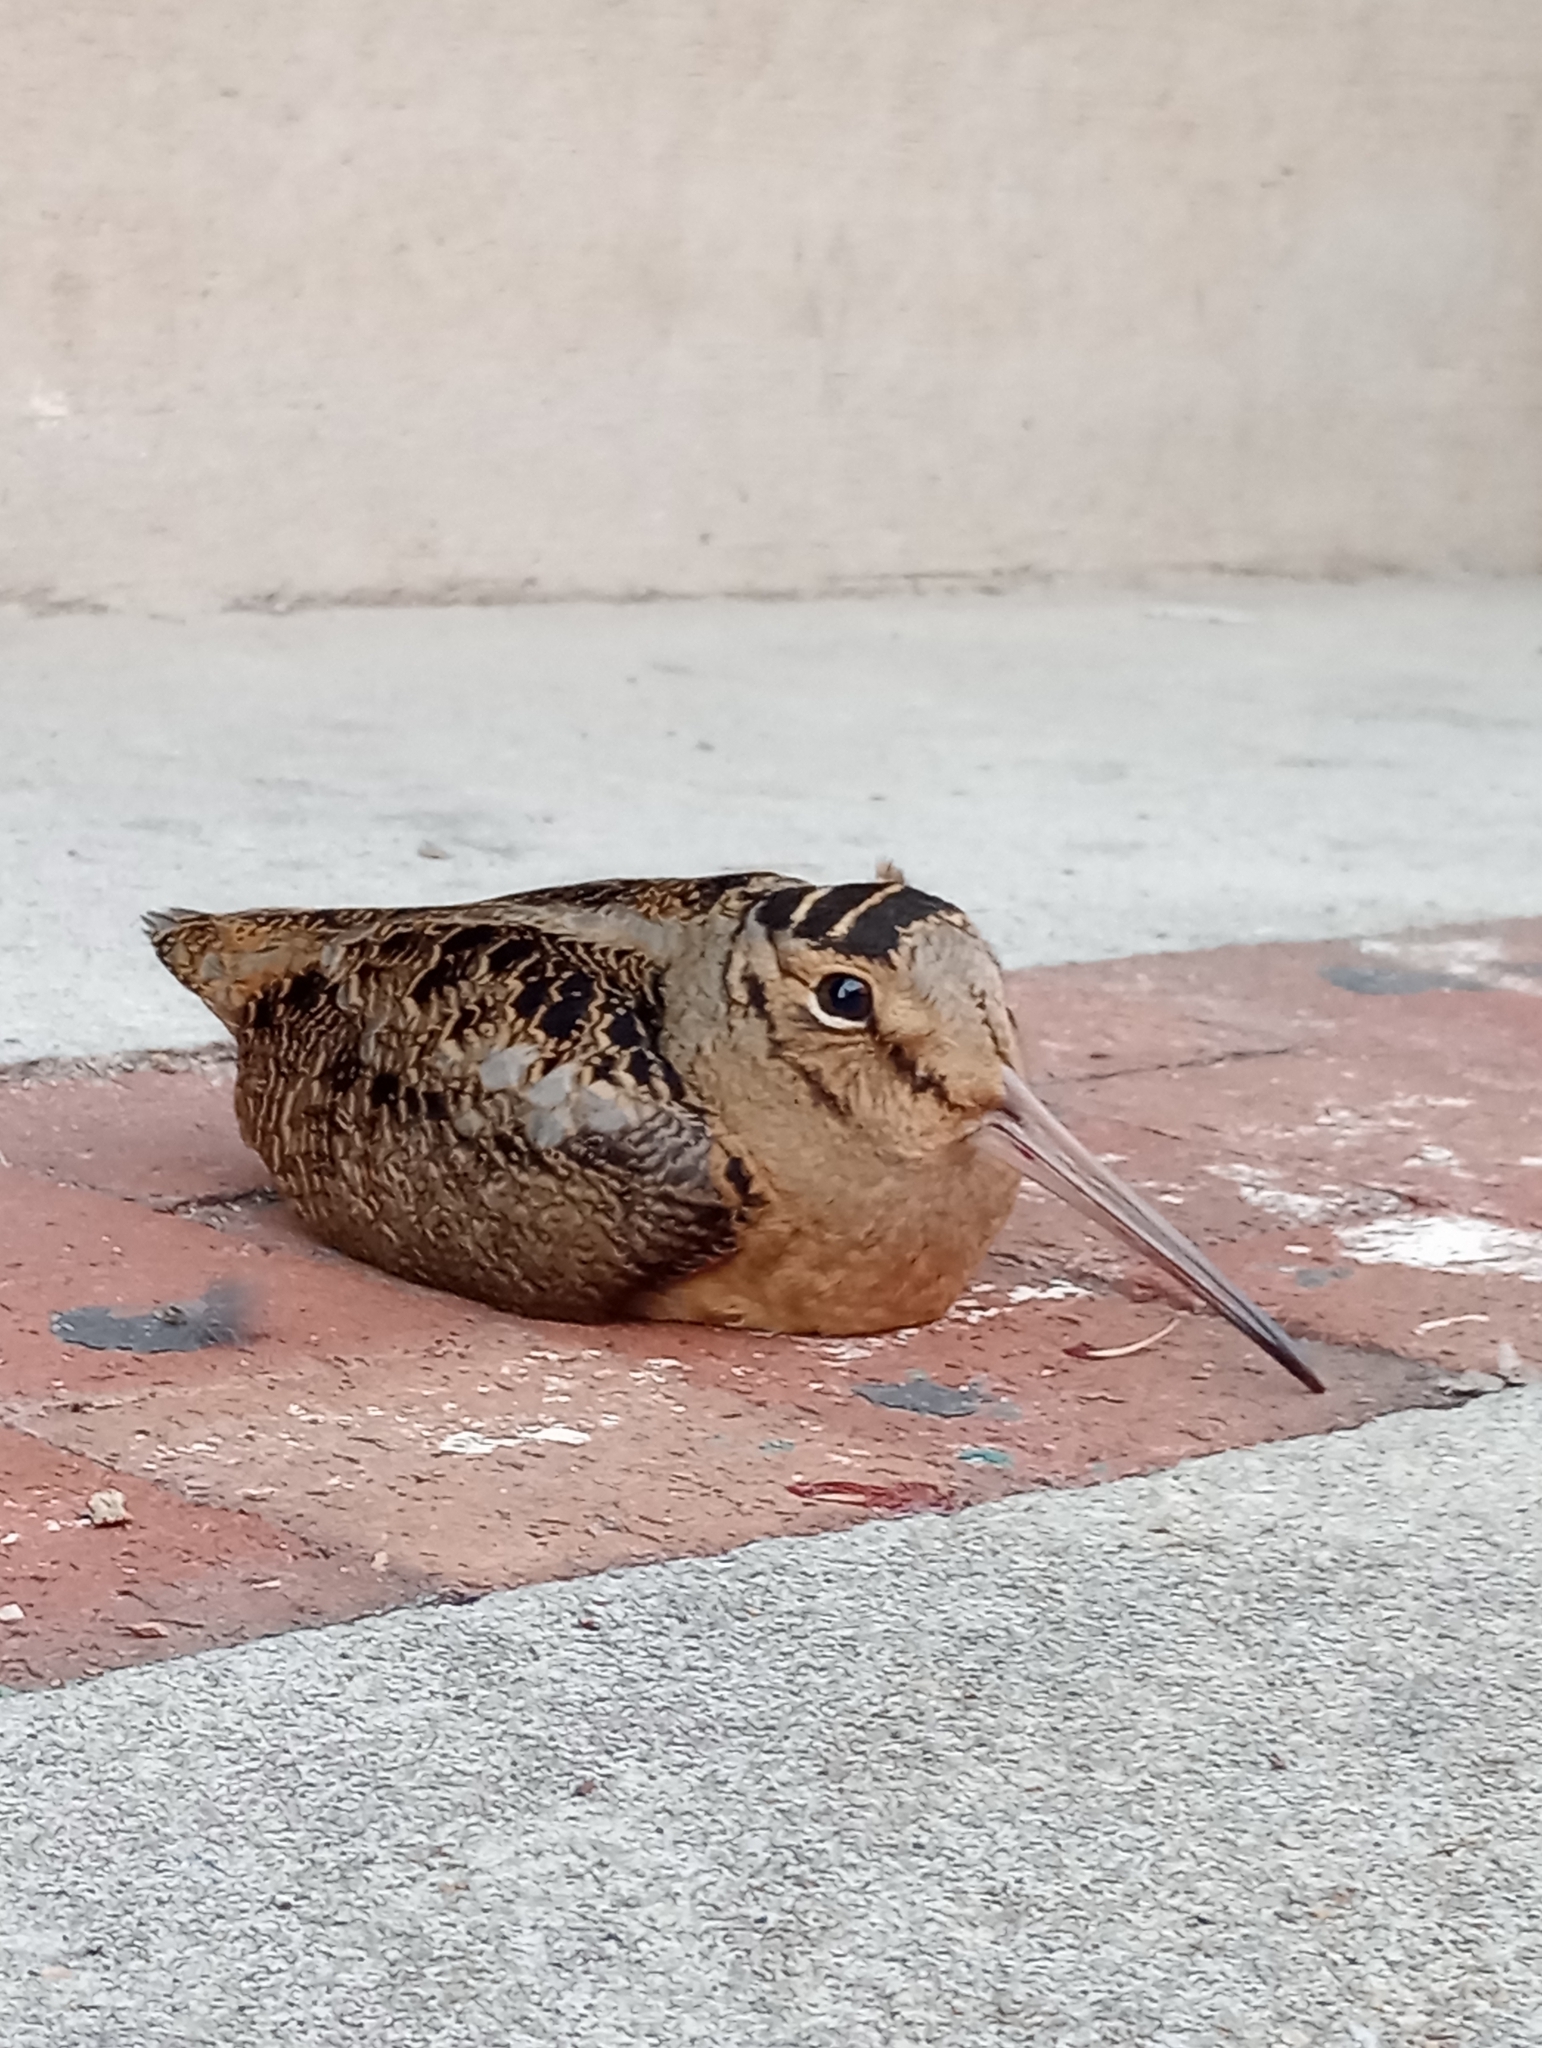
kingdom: Animalia
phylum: Chordata
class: Aves
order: Charadriiformes
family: Scolopacidae
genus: Scolopax
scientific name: Scolopax minor
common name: American woodcock
